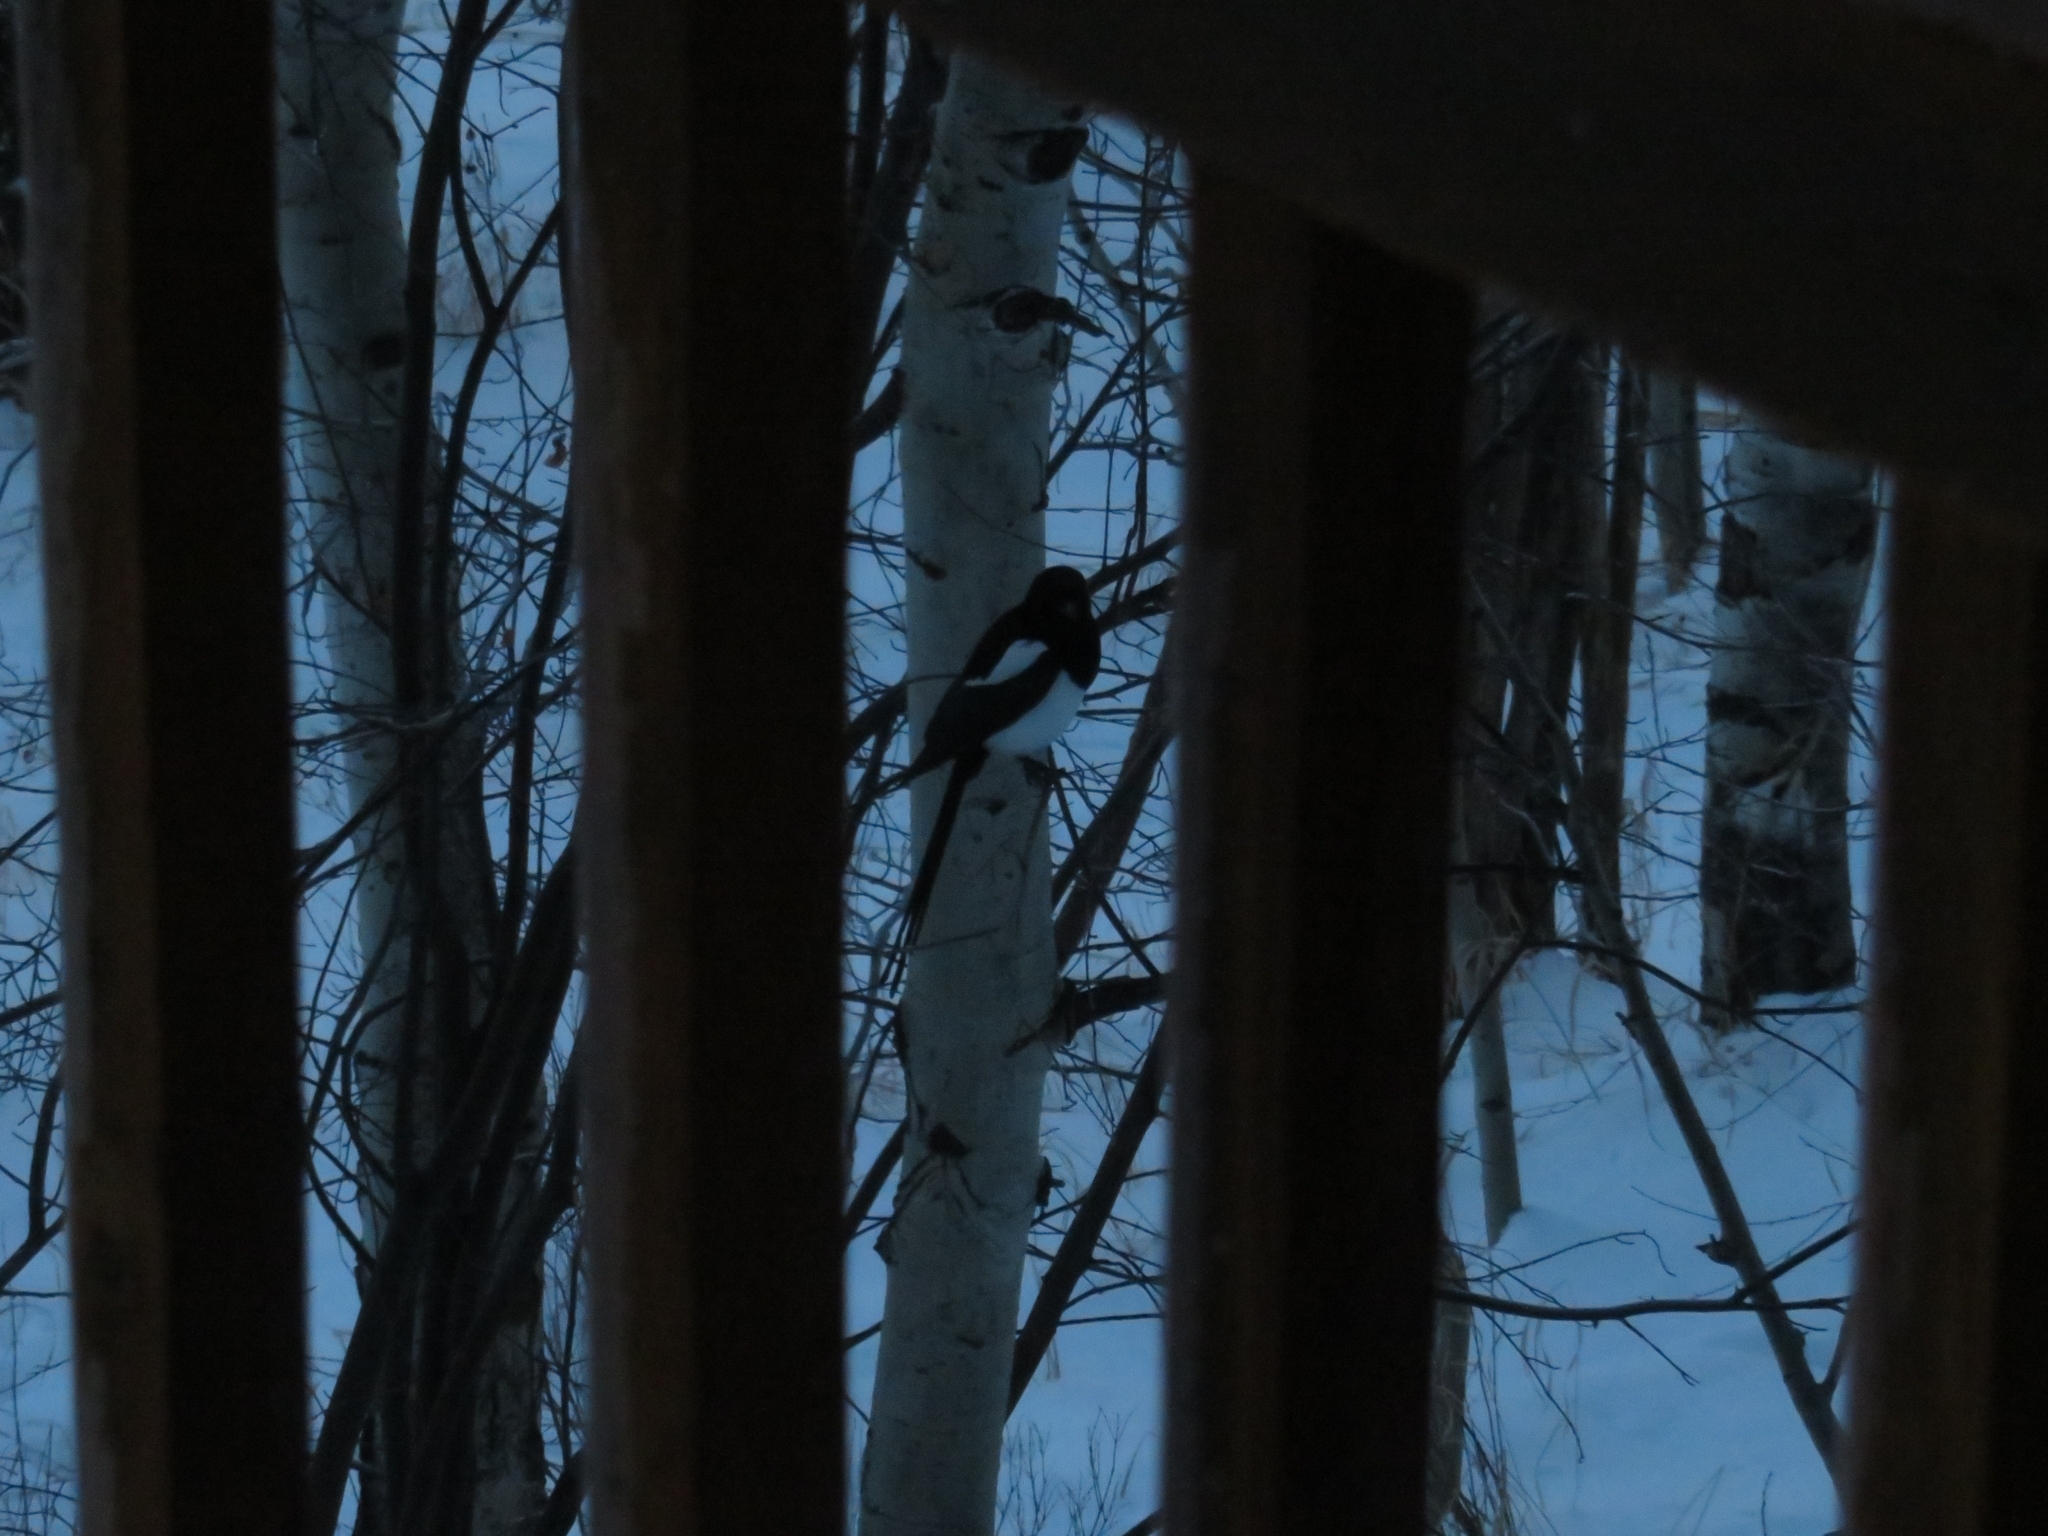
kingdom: Animalia
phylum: Chordata
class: Aves
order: Passeriformes
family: Corvidae
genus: Pica
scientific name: Pica hudsonia
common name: Black-billed magpie
